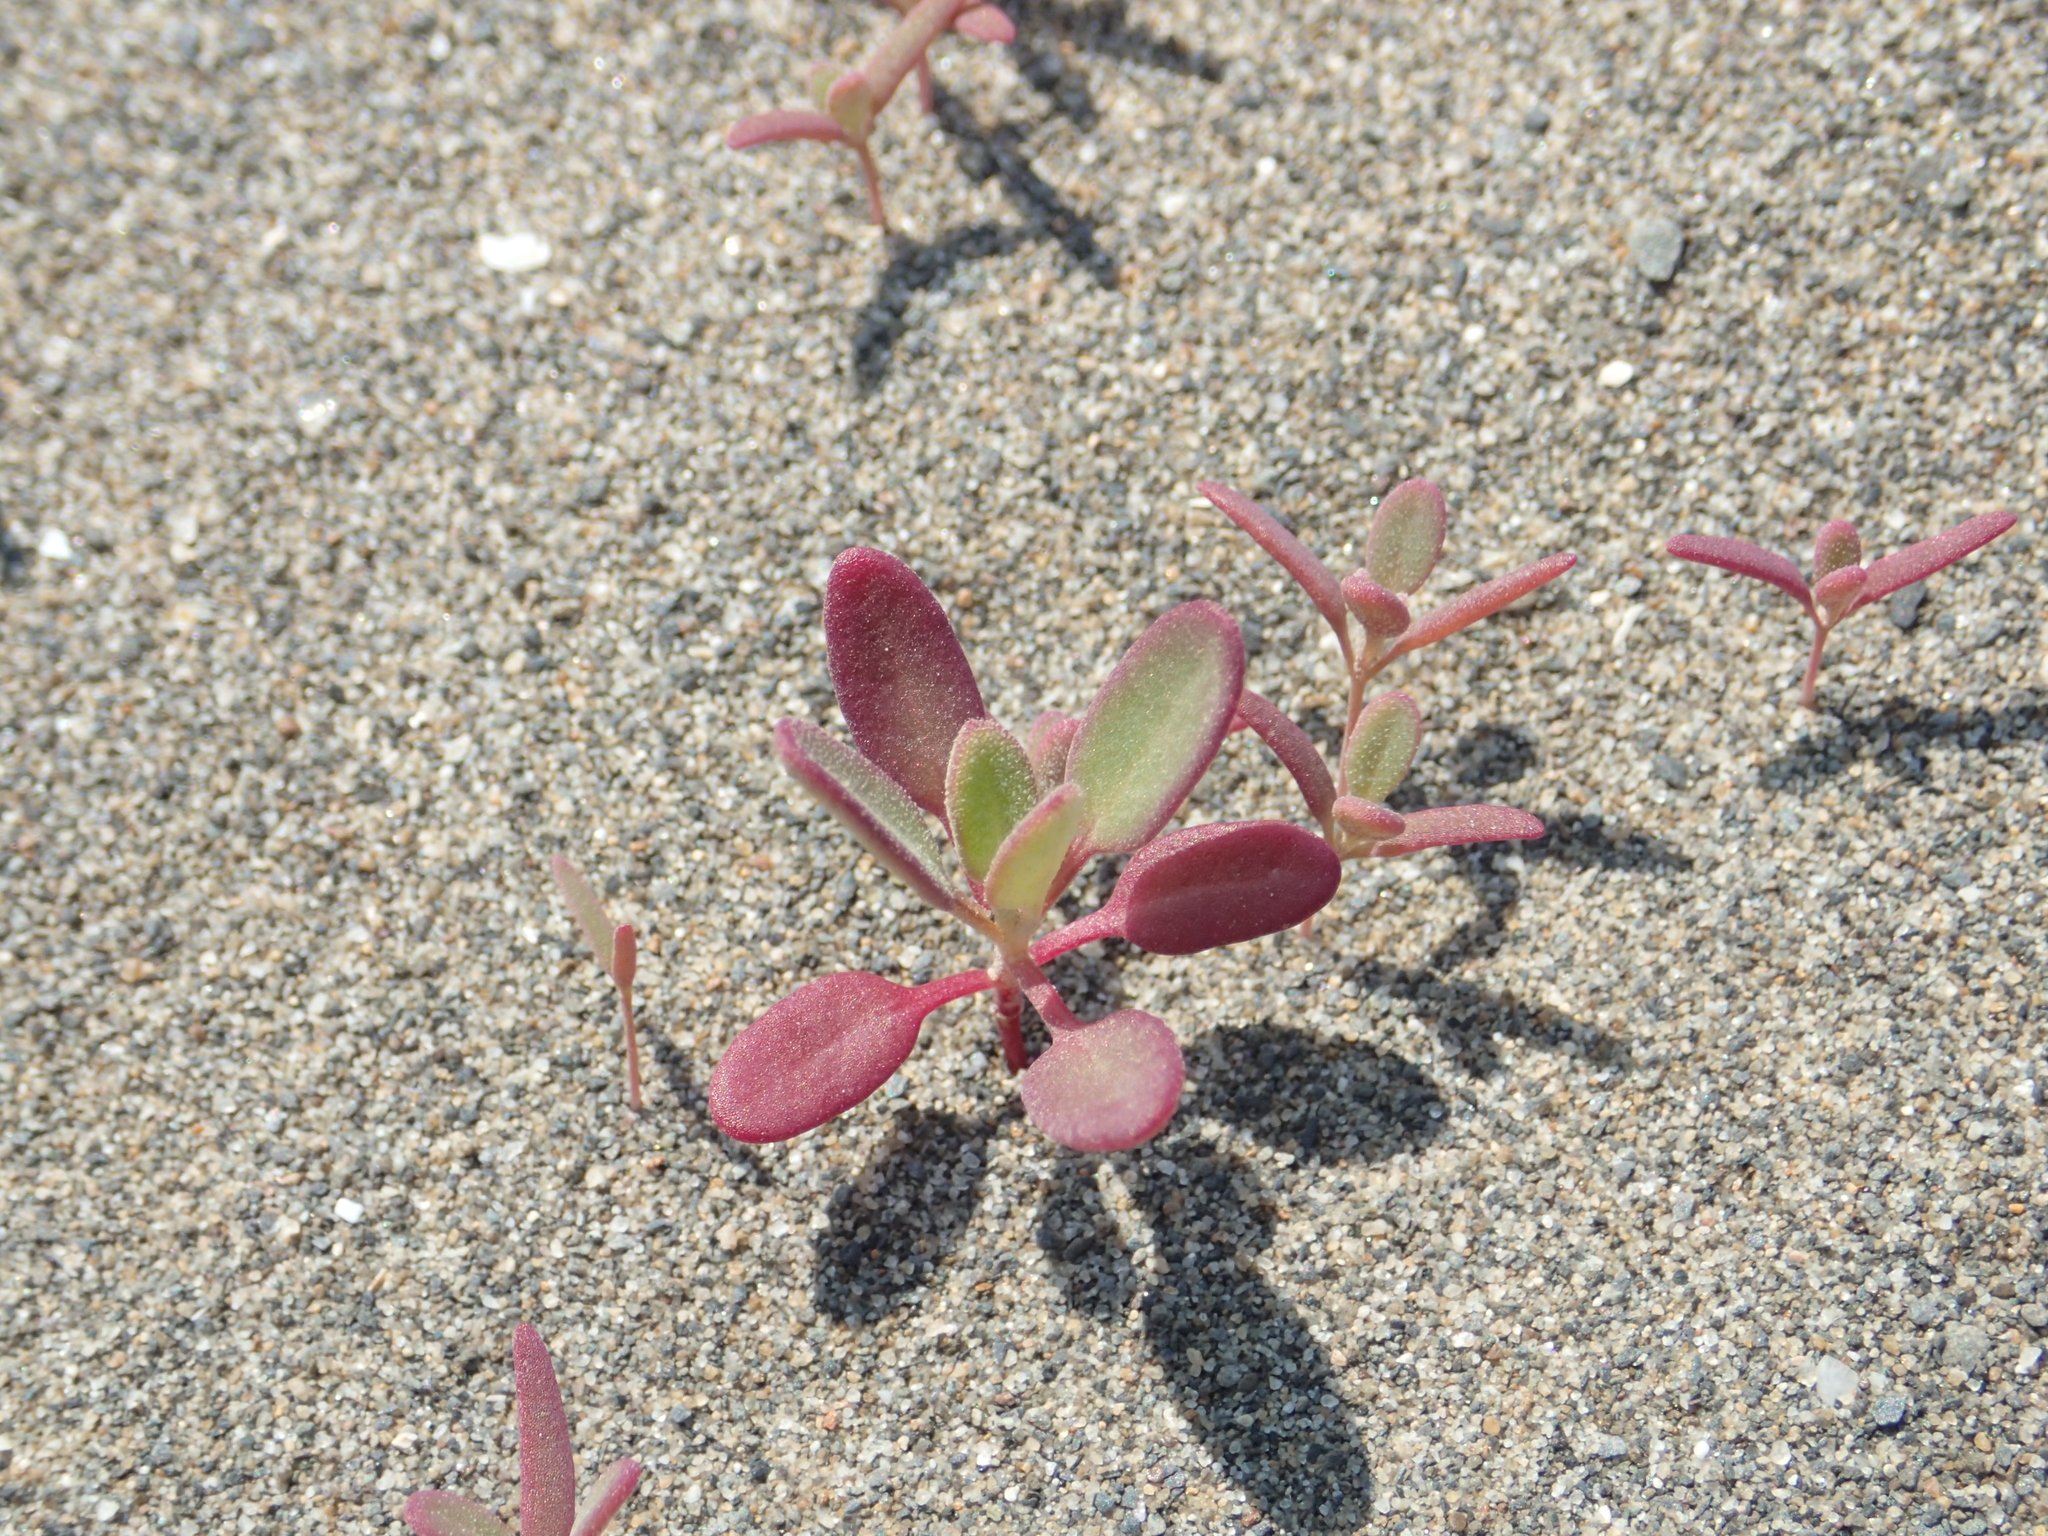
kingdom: Plantae
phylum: Tracheophyta
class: Magnoliopsida
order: Caryophyllales
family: Amaranthaceae
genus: Chenopodium
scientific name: Chenopodium acuminatum
